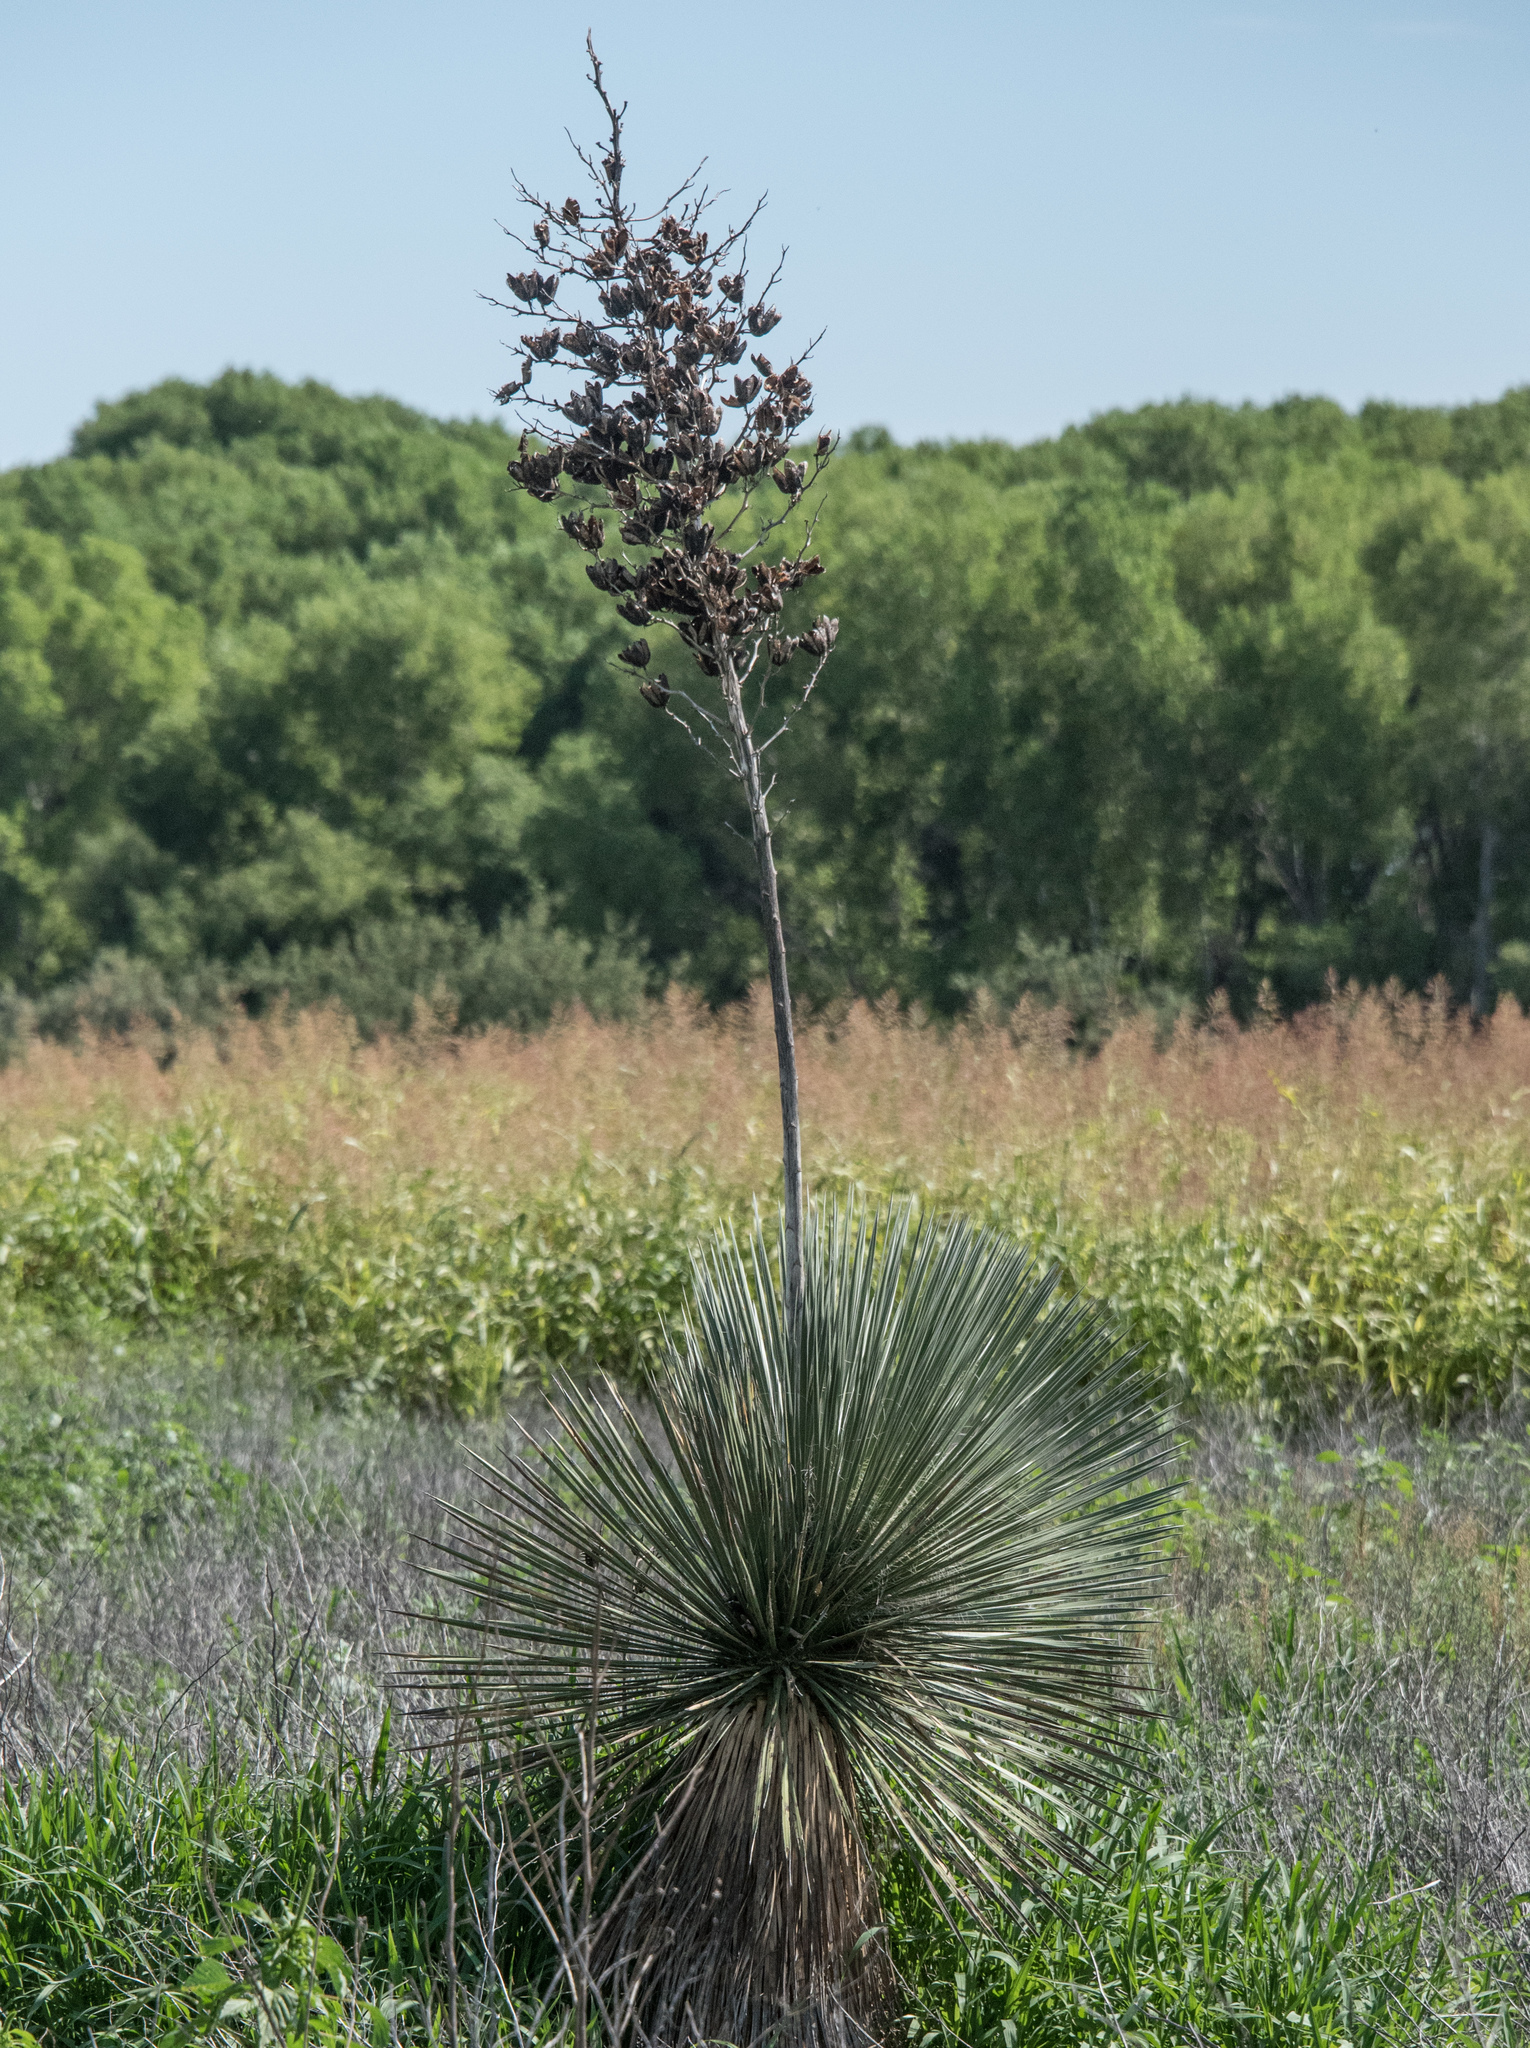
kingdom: Plantae
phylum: Tracheophyta
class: Liliopsida
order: Asparagales
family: Asparagaceae
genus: Yucca
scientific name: Yucca elata
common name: Palmella
